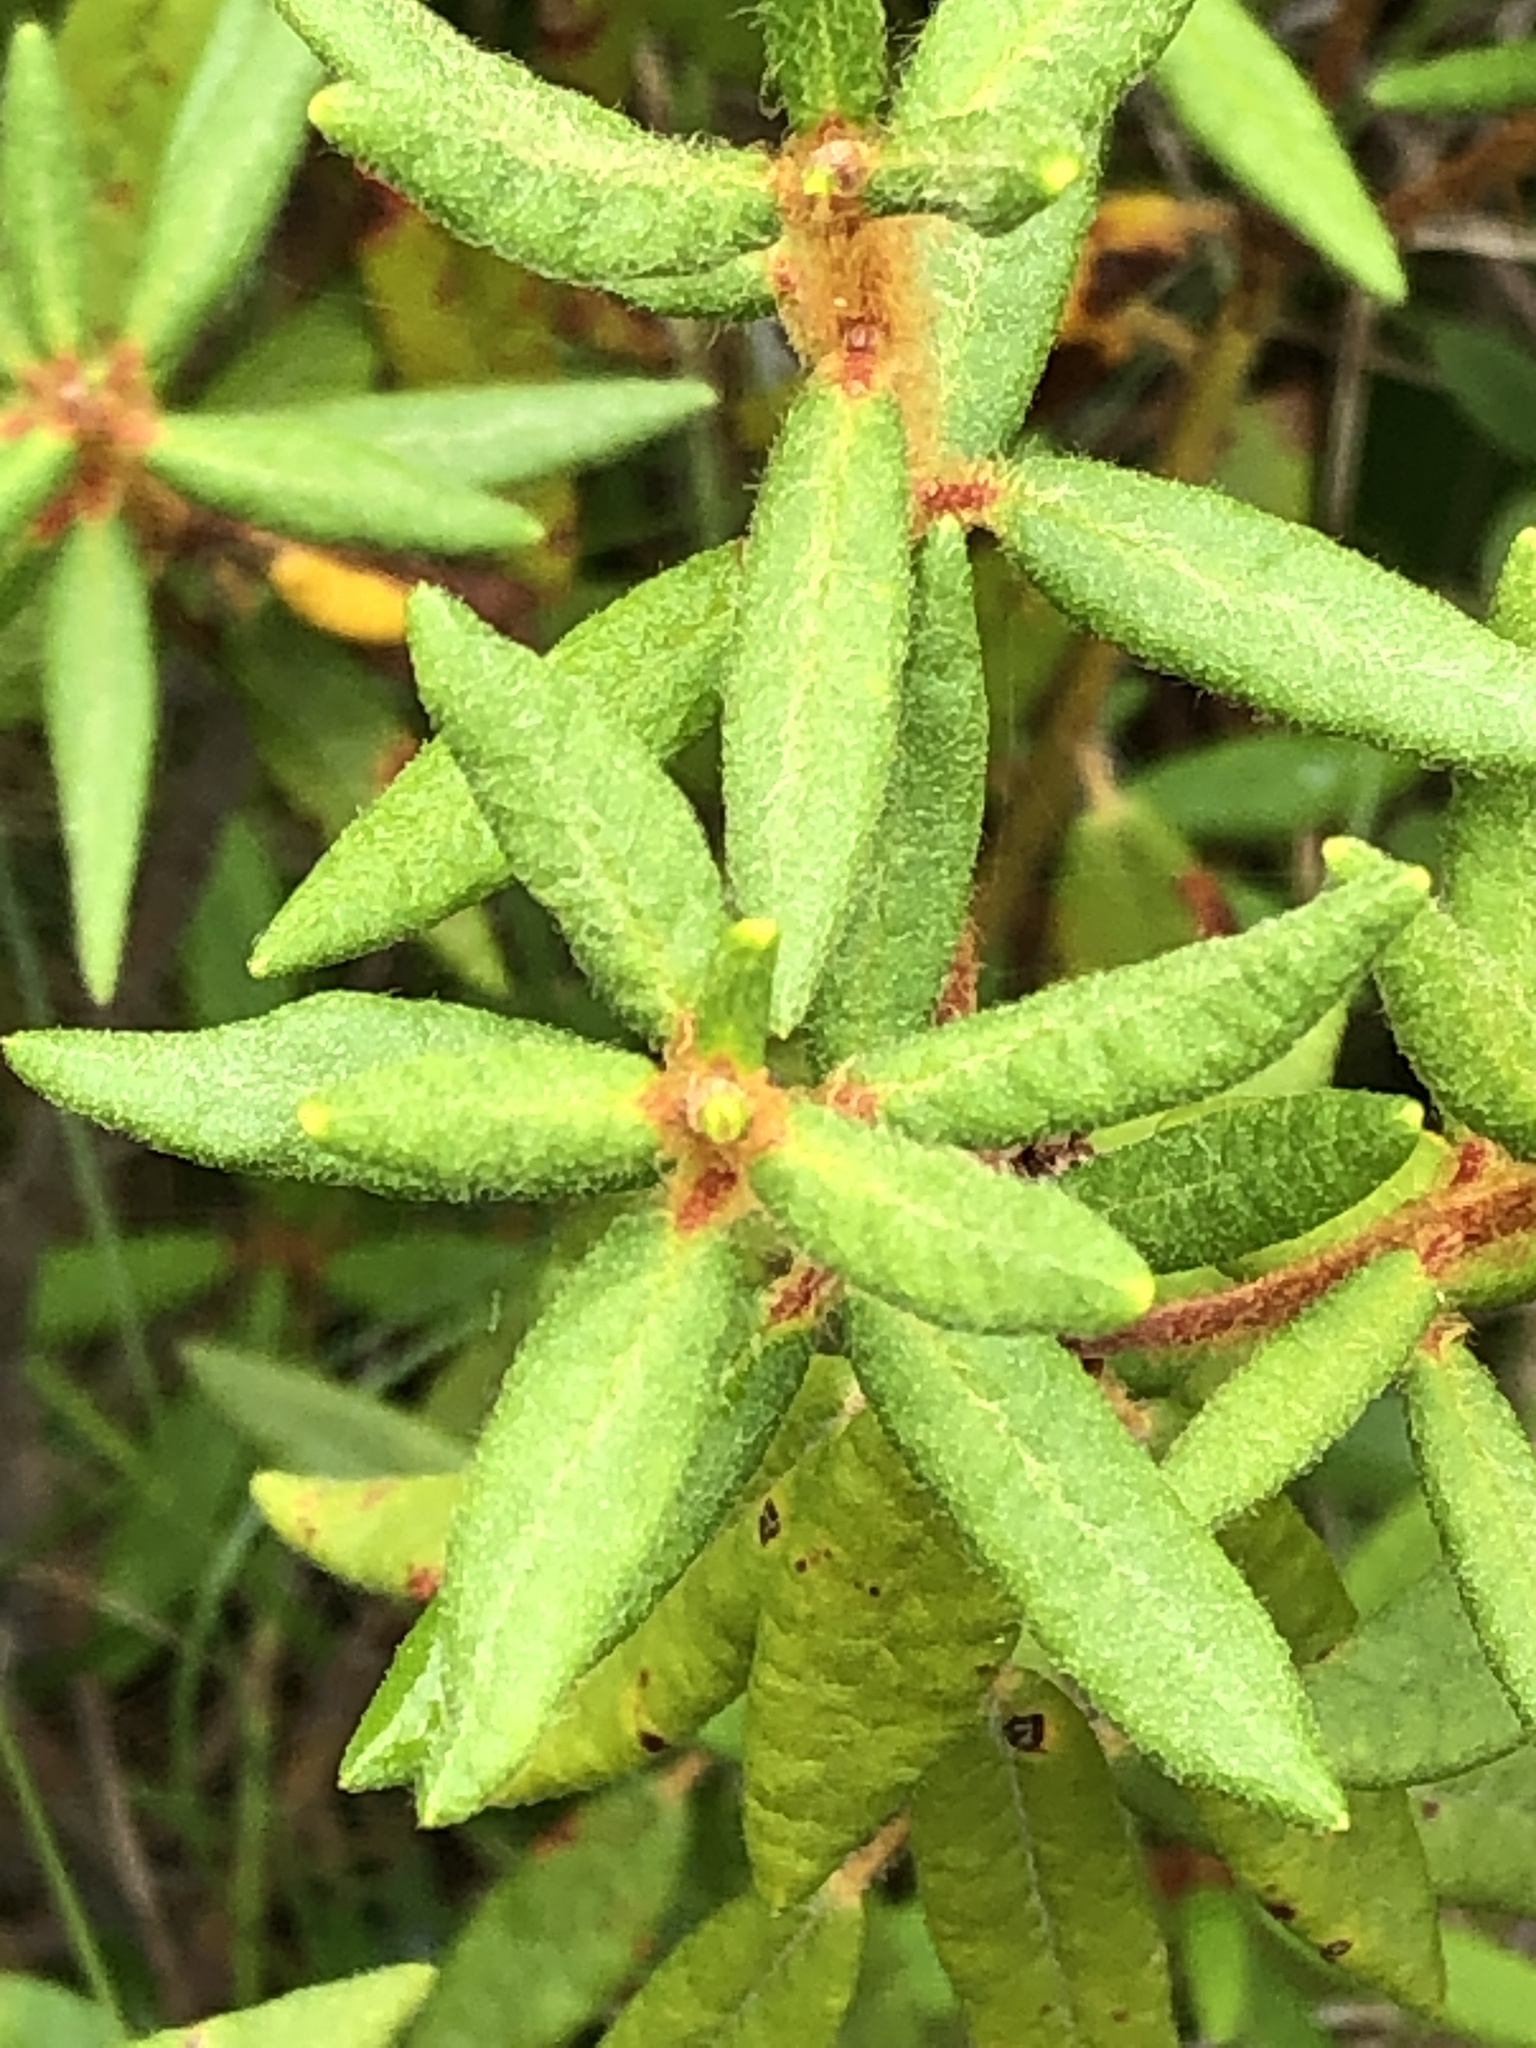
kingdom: Plantae
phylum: Tracheophyta
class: Magnoliopsida
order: Ericales
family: Ericaceae
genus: Rhododendron
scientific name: Rhododendron groenlandicum
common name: Bog labrador tea
